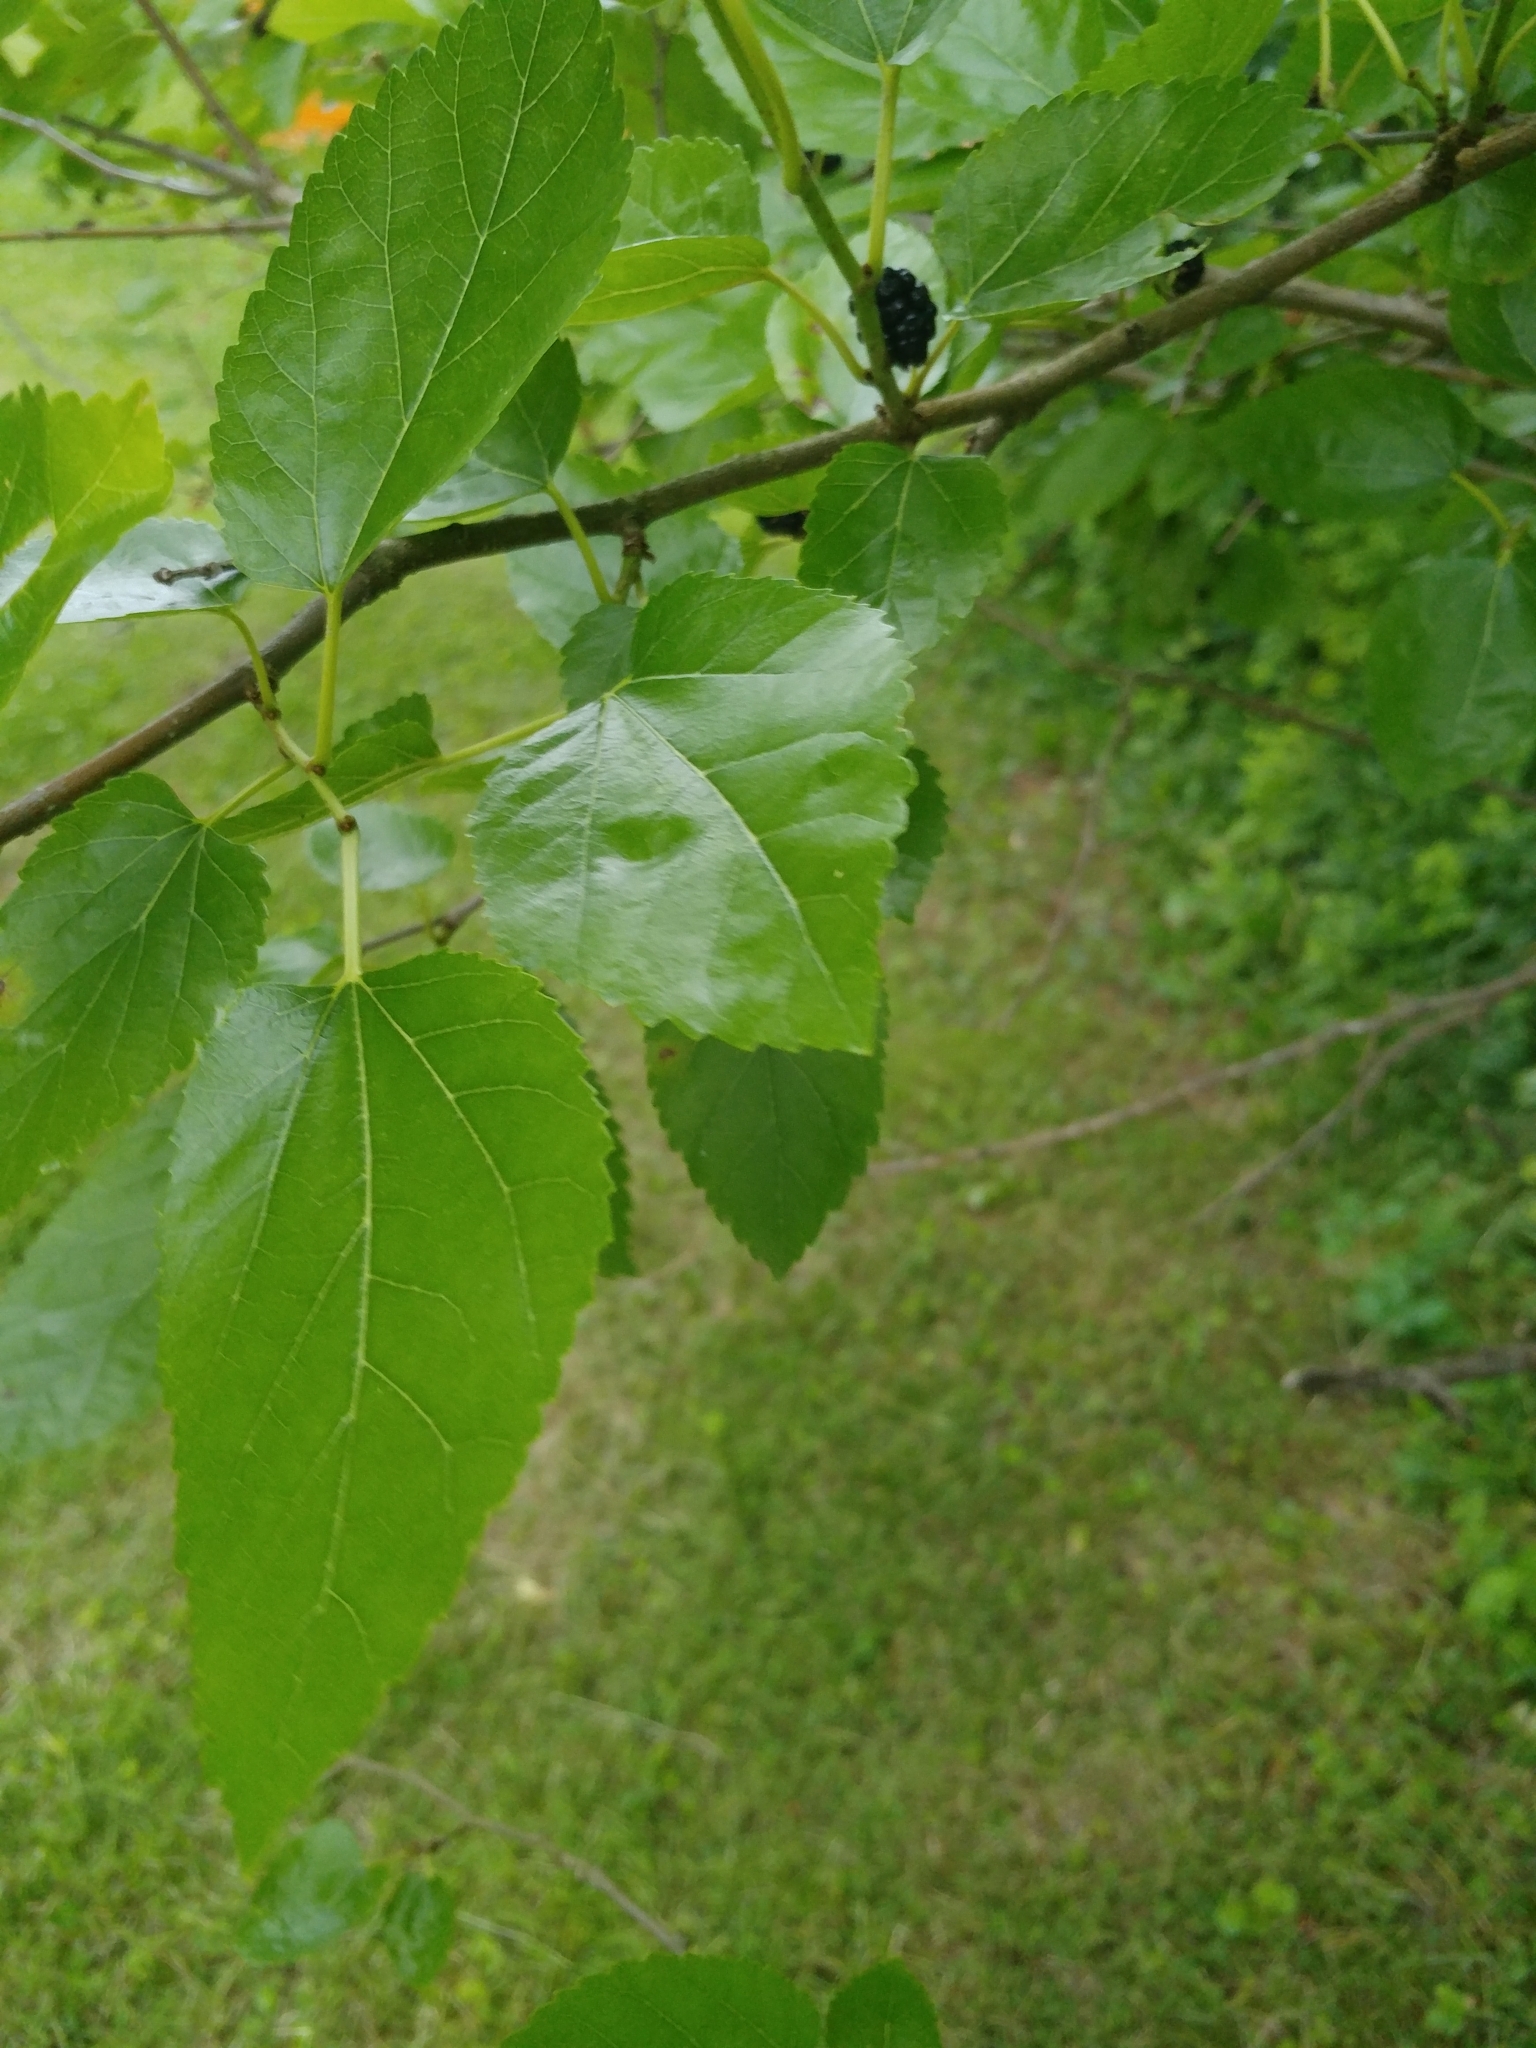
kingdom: Plantae
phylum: Tracheophyta
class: Magnoliopsida
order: Rosales
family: Moraceae
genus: Morus
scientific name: Morus alba
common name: White mulberry
